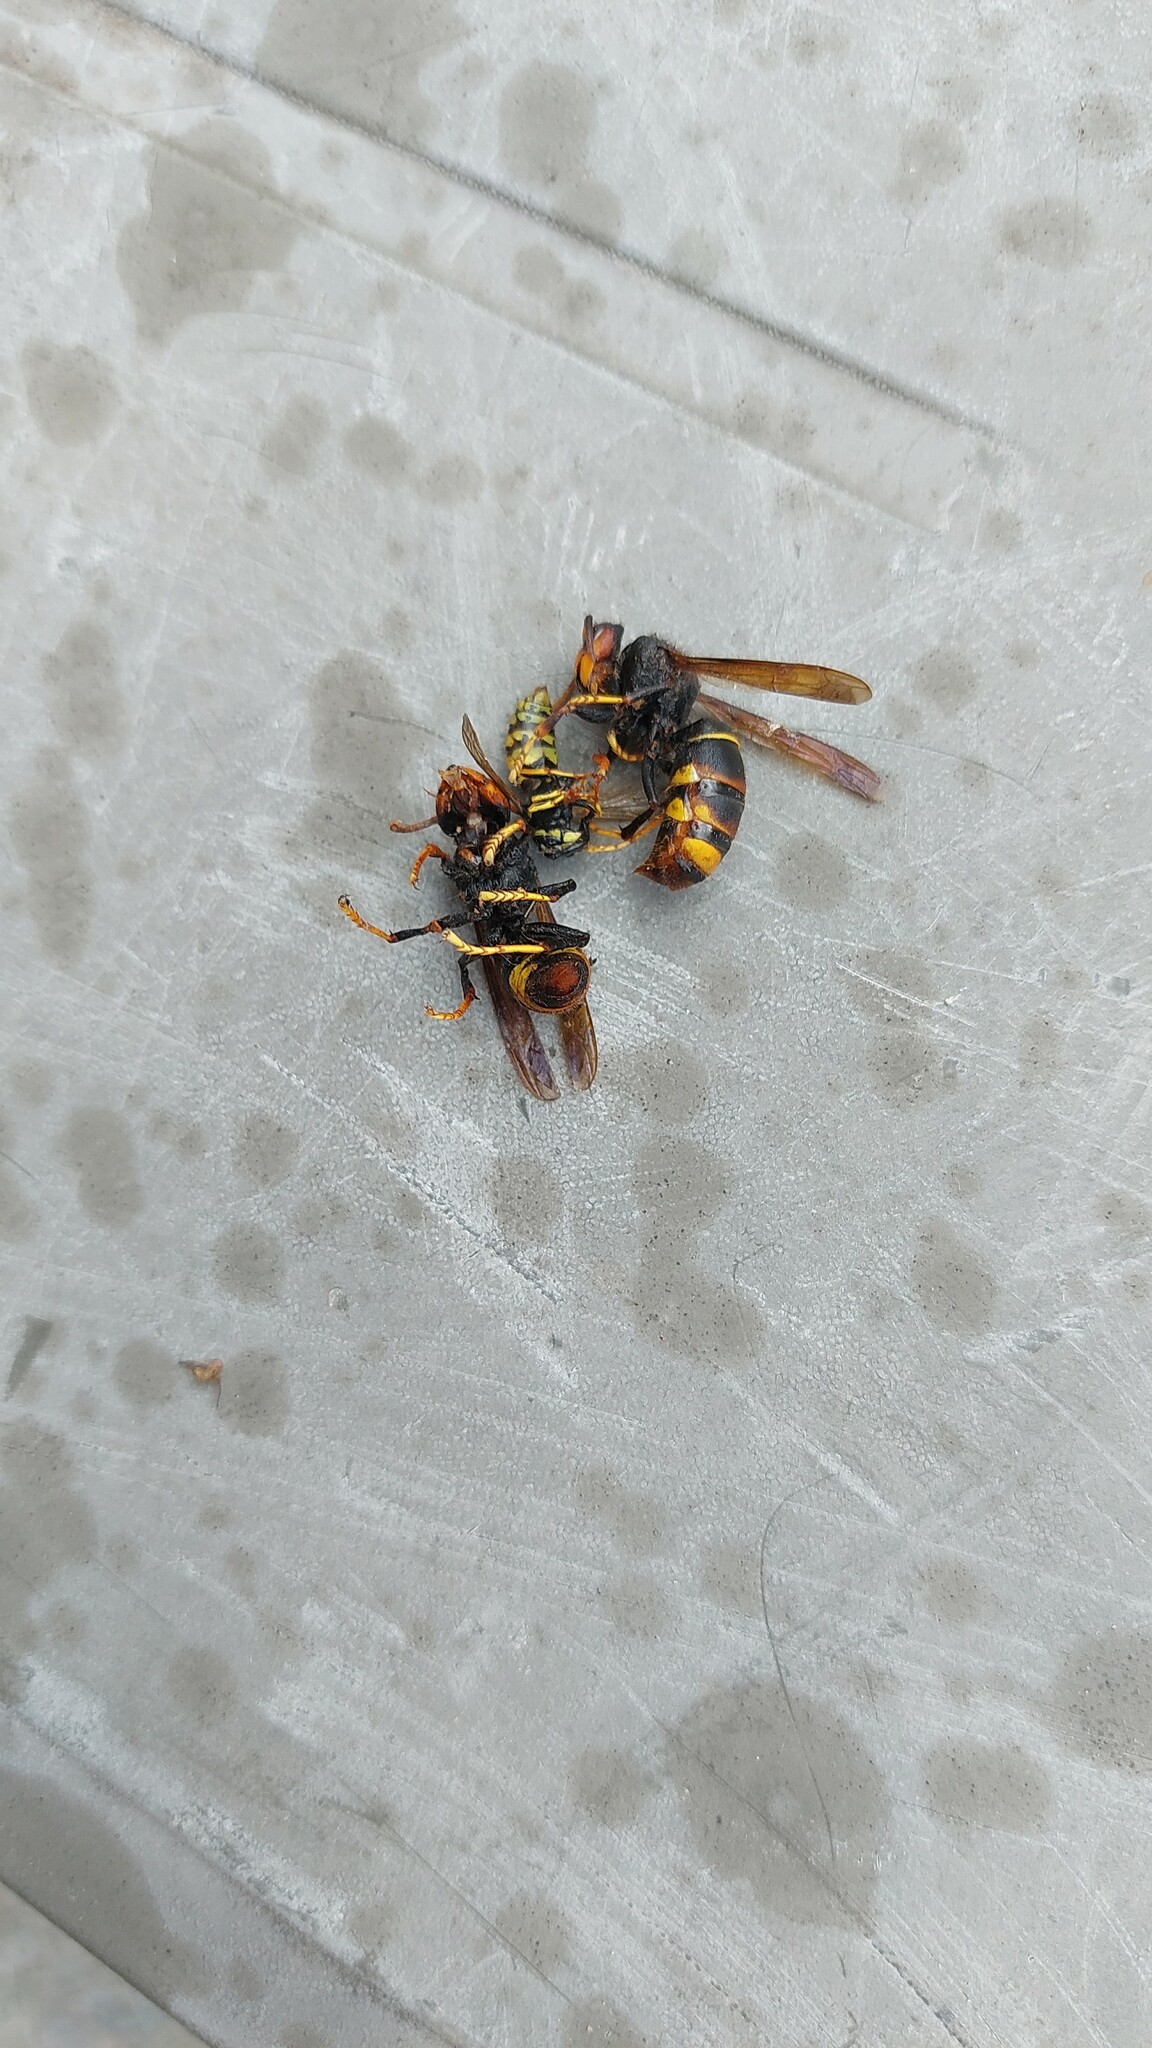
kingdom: Animalia
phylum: Arthropoda
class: Insecta
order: Hymenoptera
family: Vespidae
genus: Vespa
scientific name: Vespa velutina
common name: Asian hornet
